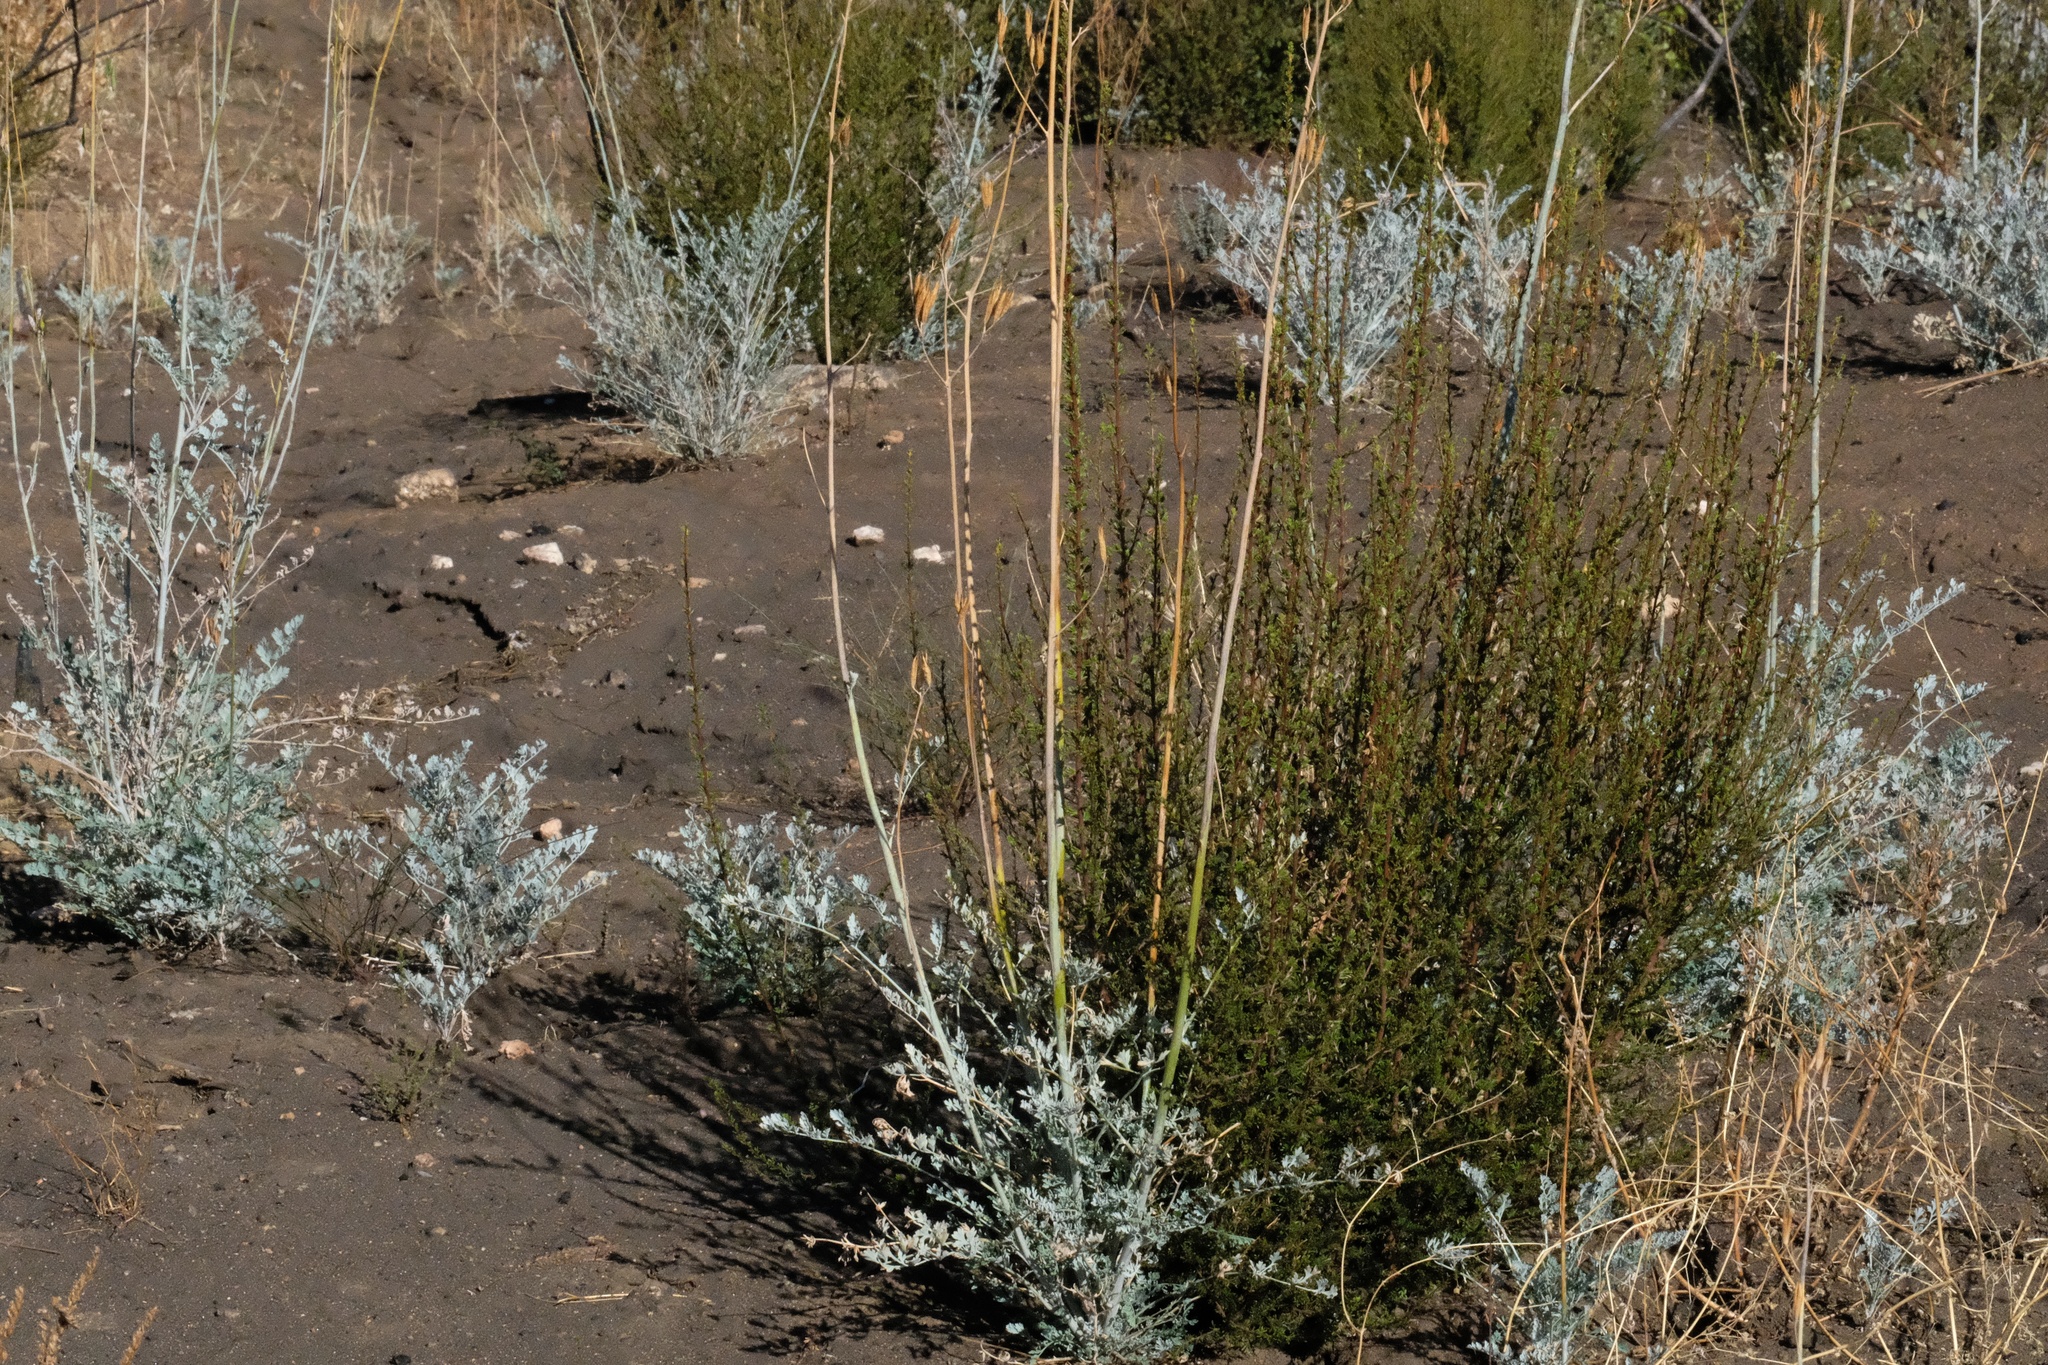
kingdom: Plantae
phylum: Tracheophyta
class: Magnoliopsida
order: Ranunculales
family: Papaveraceae
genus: Ehrendorferia
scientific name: Ehrendorferia chrysantha
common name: Golden eardrops
